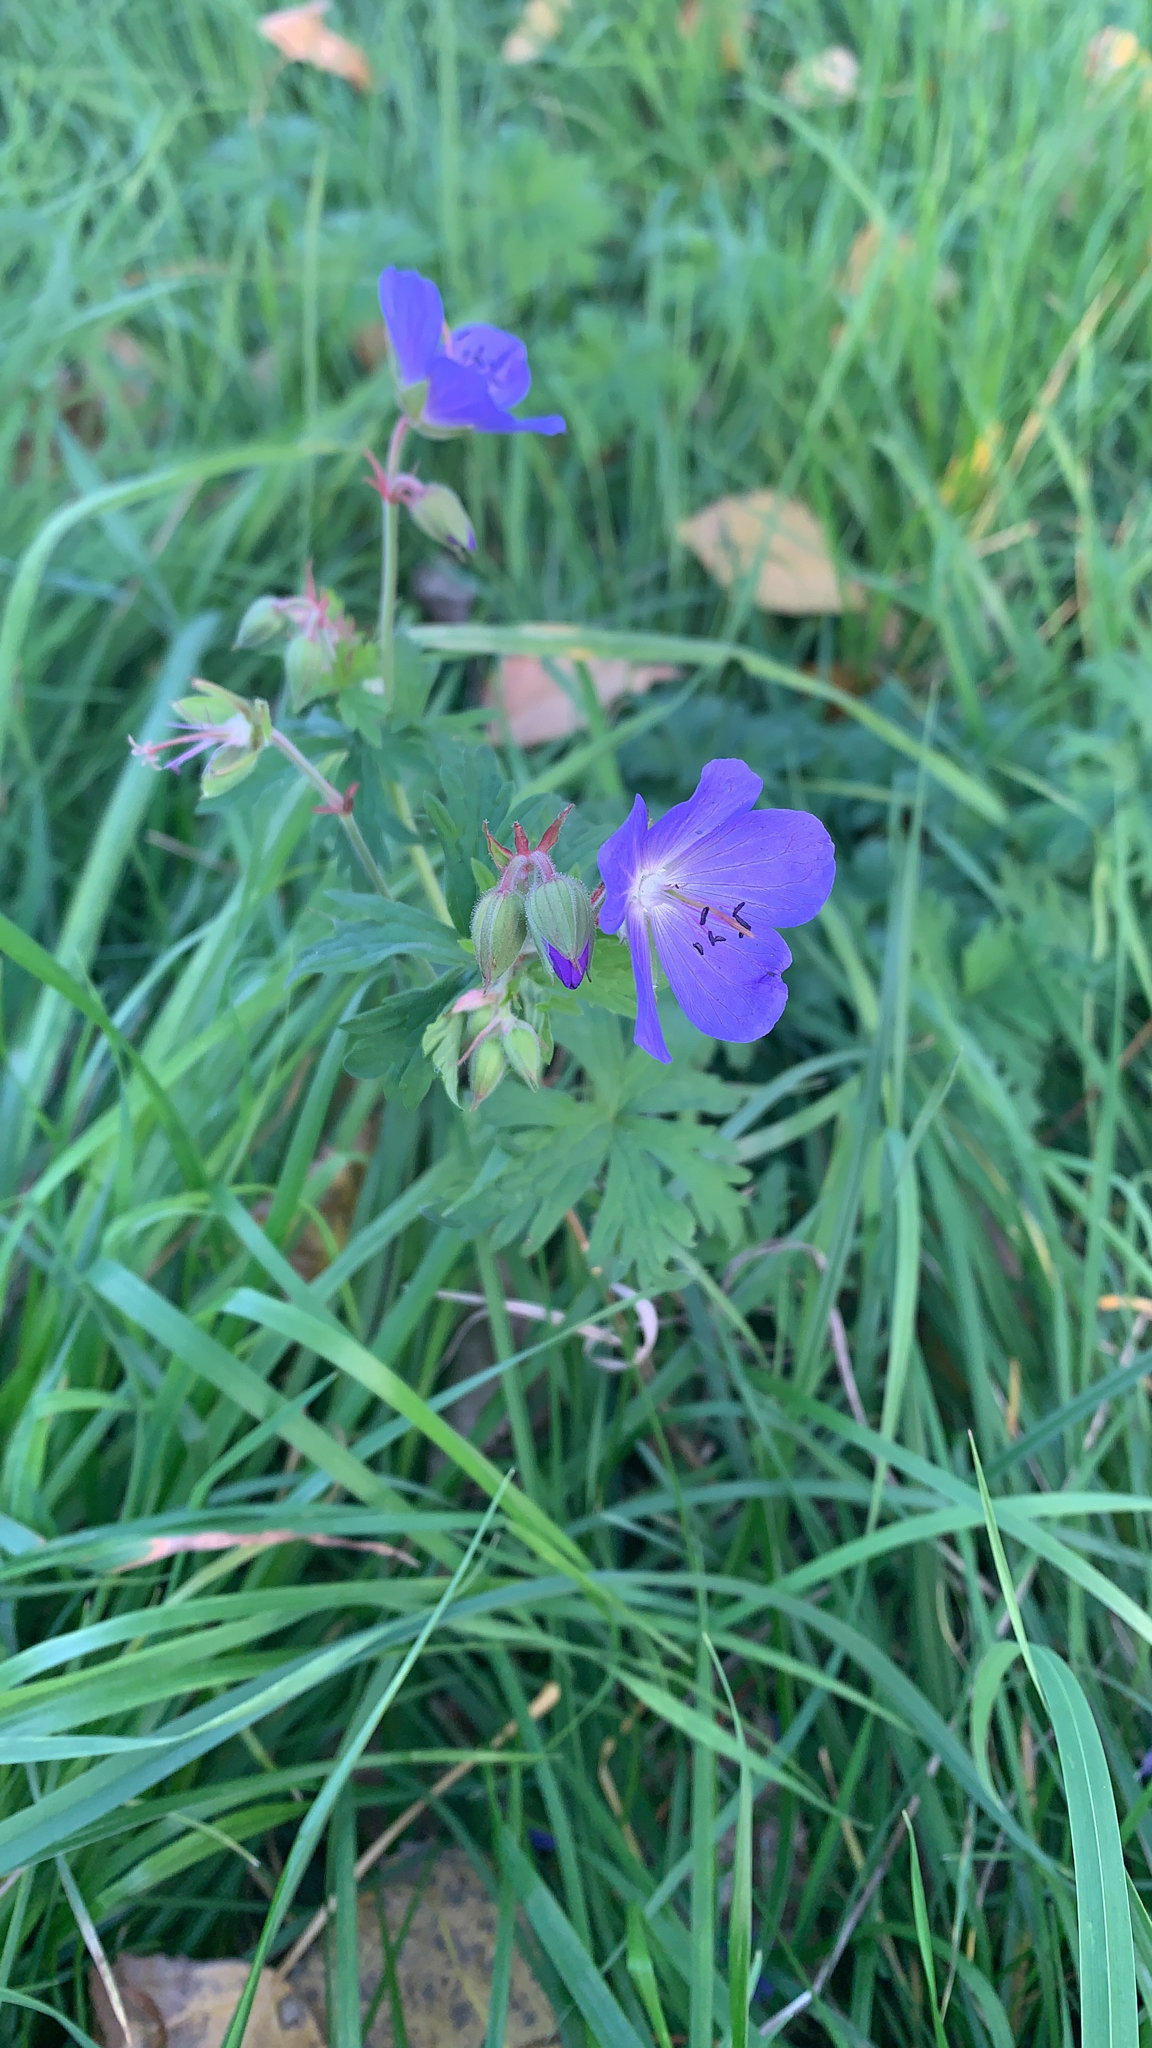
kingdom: Plantae
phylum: Tracheophyta
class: Magnoliopsida
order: Geraniales
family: Geraniaceae
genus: Geranium
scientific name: Geranium pratense
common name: Meadow crane's-bill
